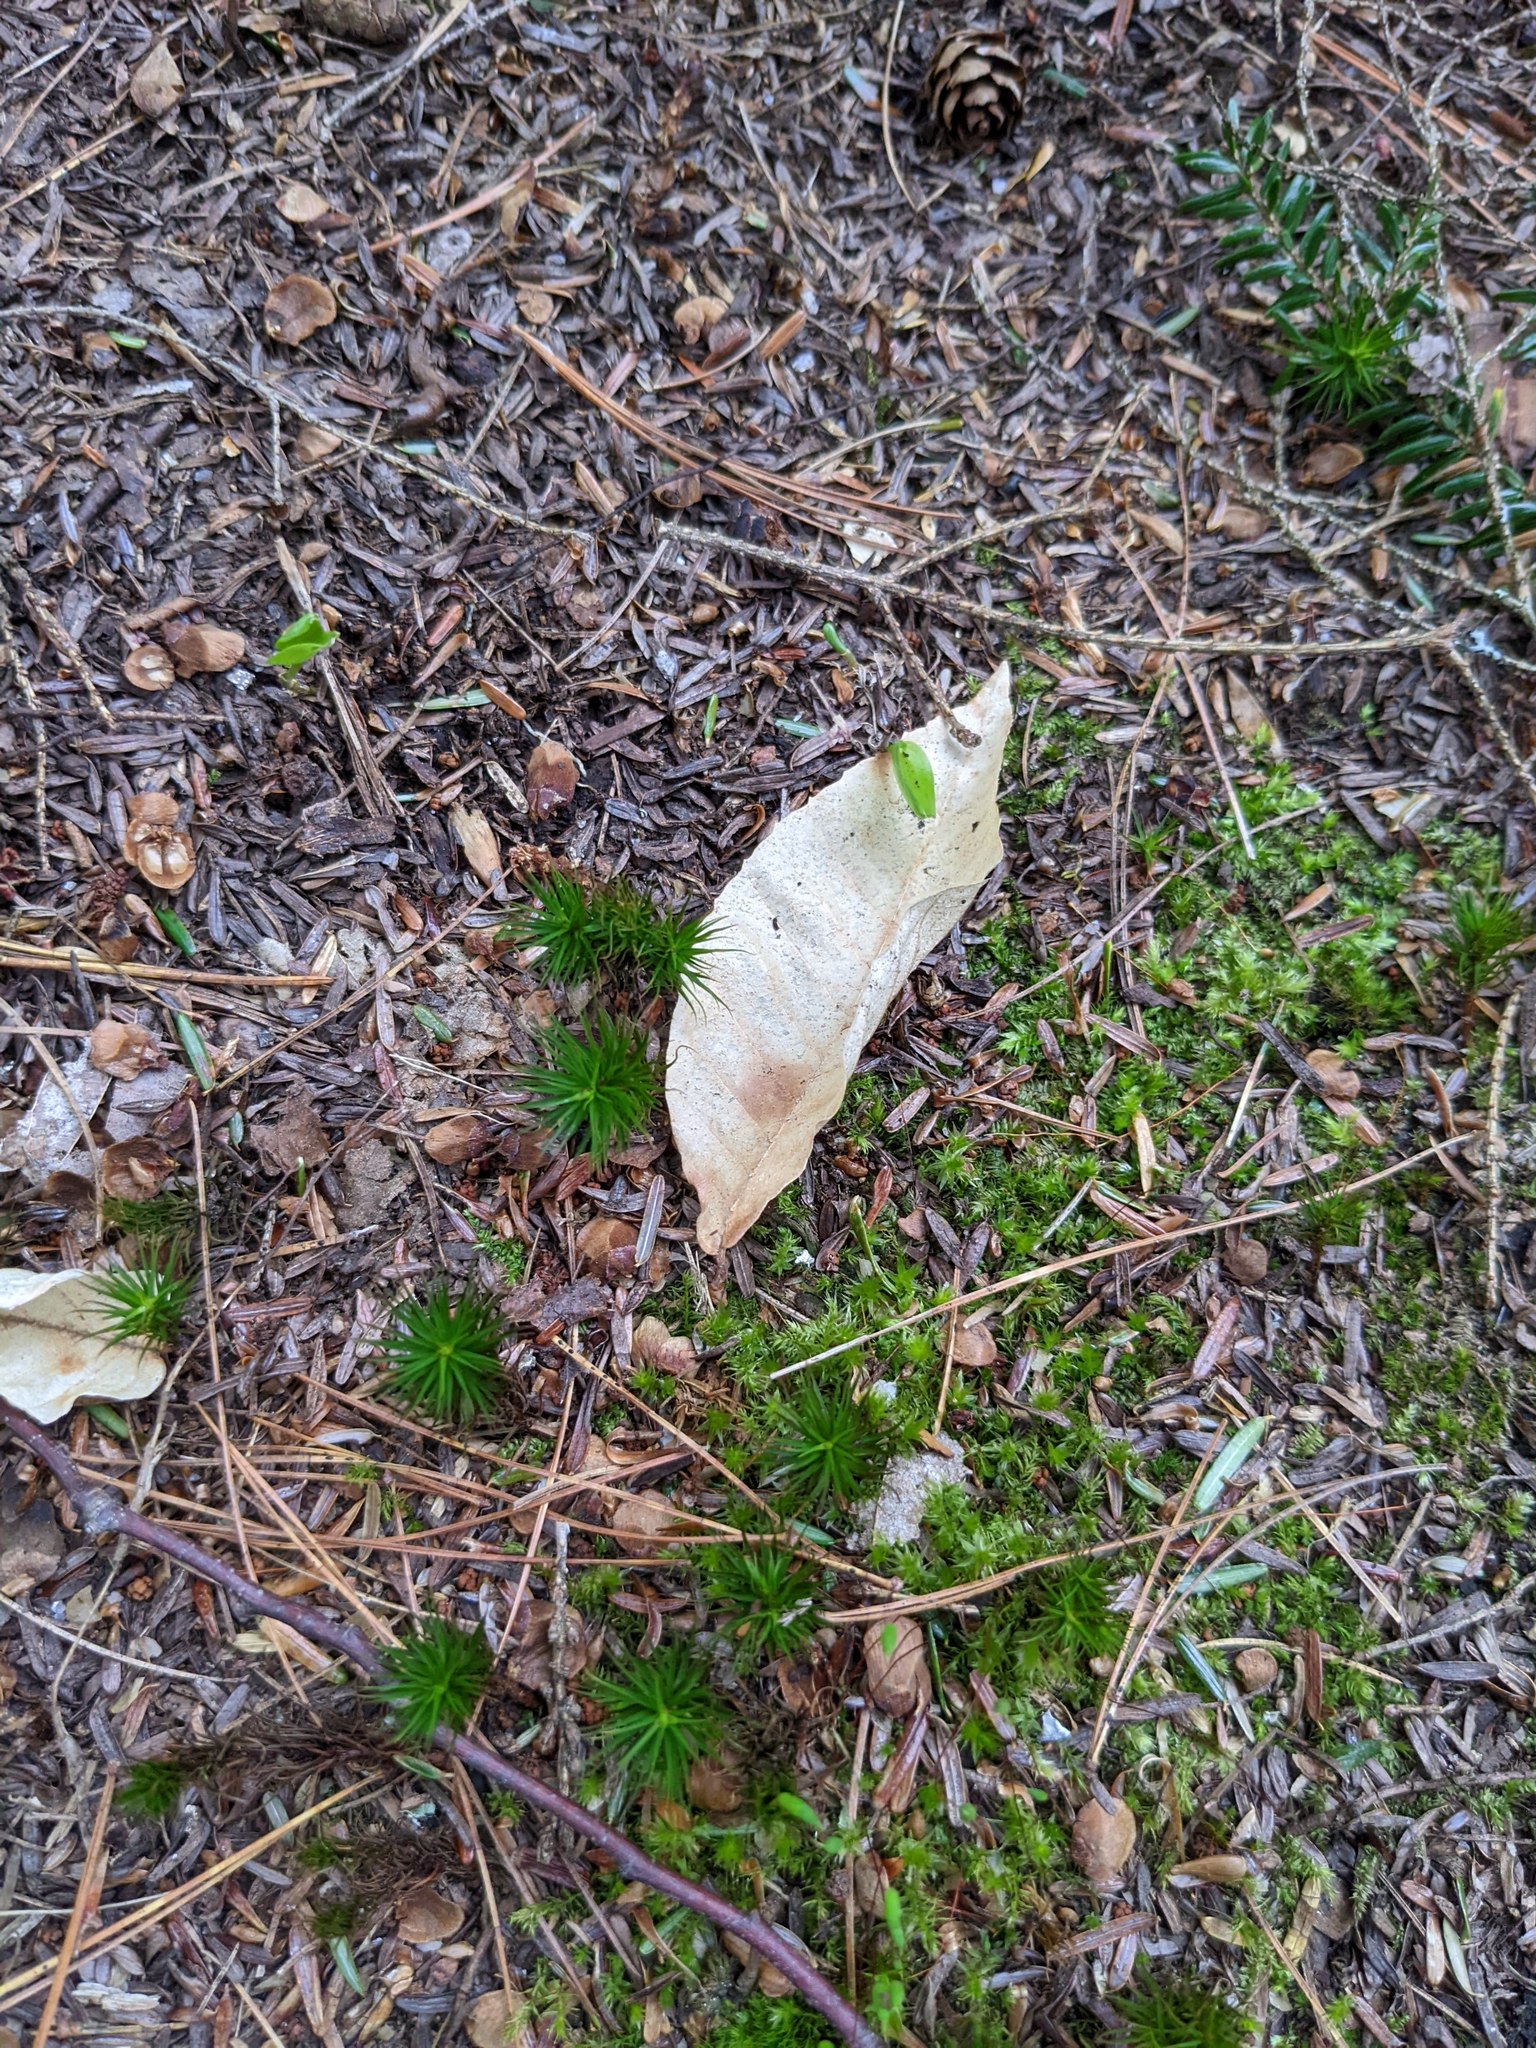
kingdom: Plantae
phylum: Tracheophyta
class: Magnoliopsida
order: Fagales
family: Fagaceae
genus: Fagus
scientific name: Fagus grandifolia
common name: American beech
